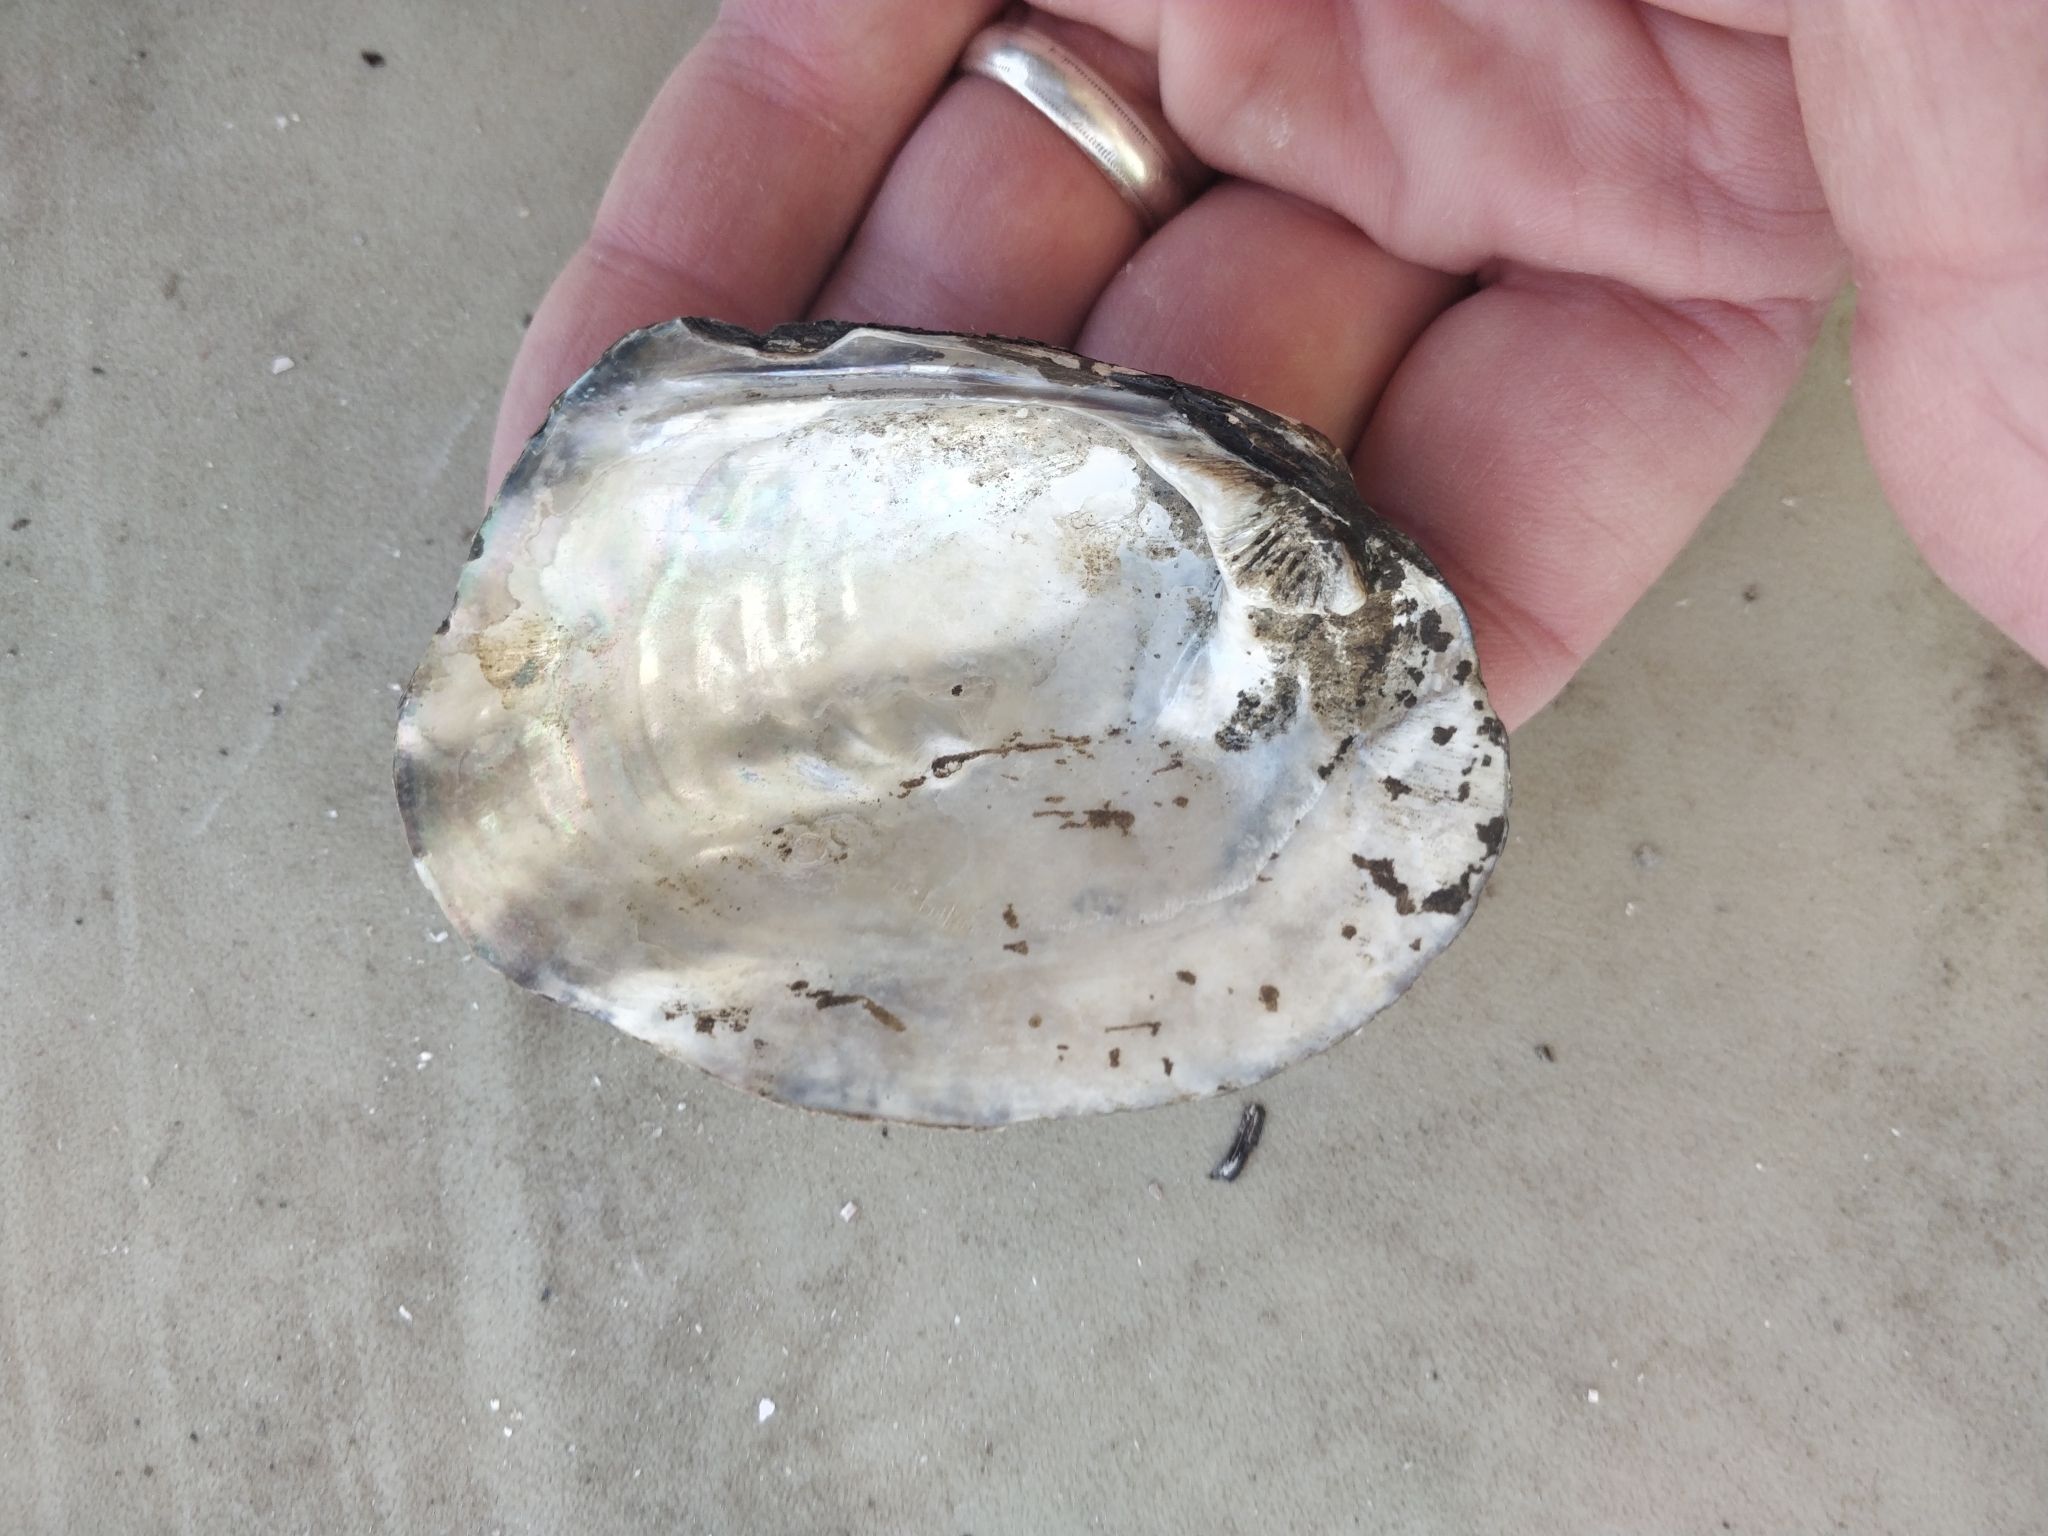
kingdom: Animalia
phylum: Mollusca
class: Bivalvia
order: Unionida
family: Unionidae
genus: Amblema
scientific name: Amblema plicata
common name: Threeridge
